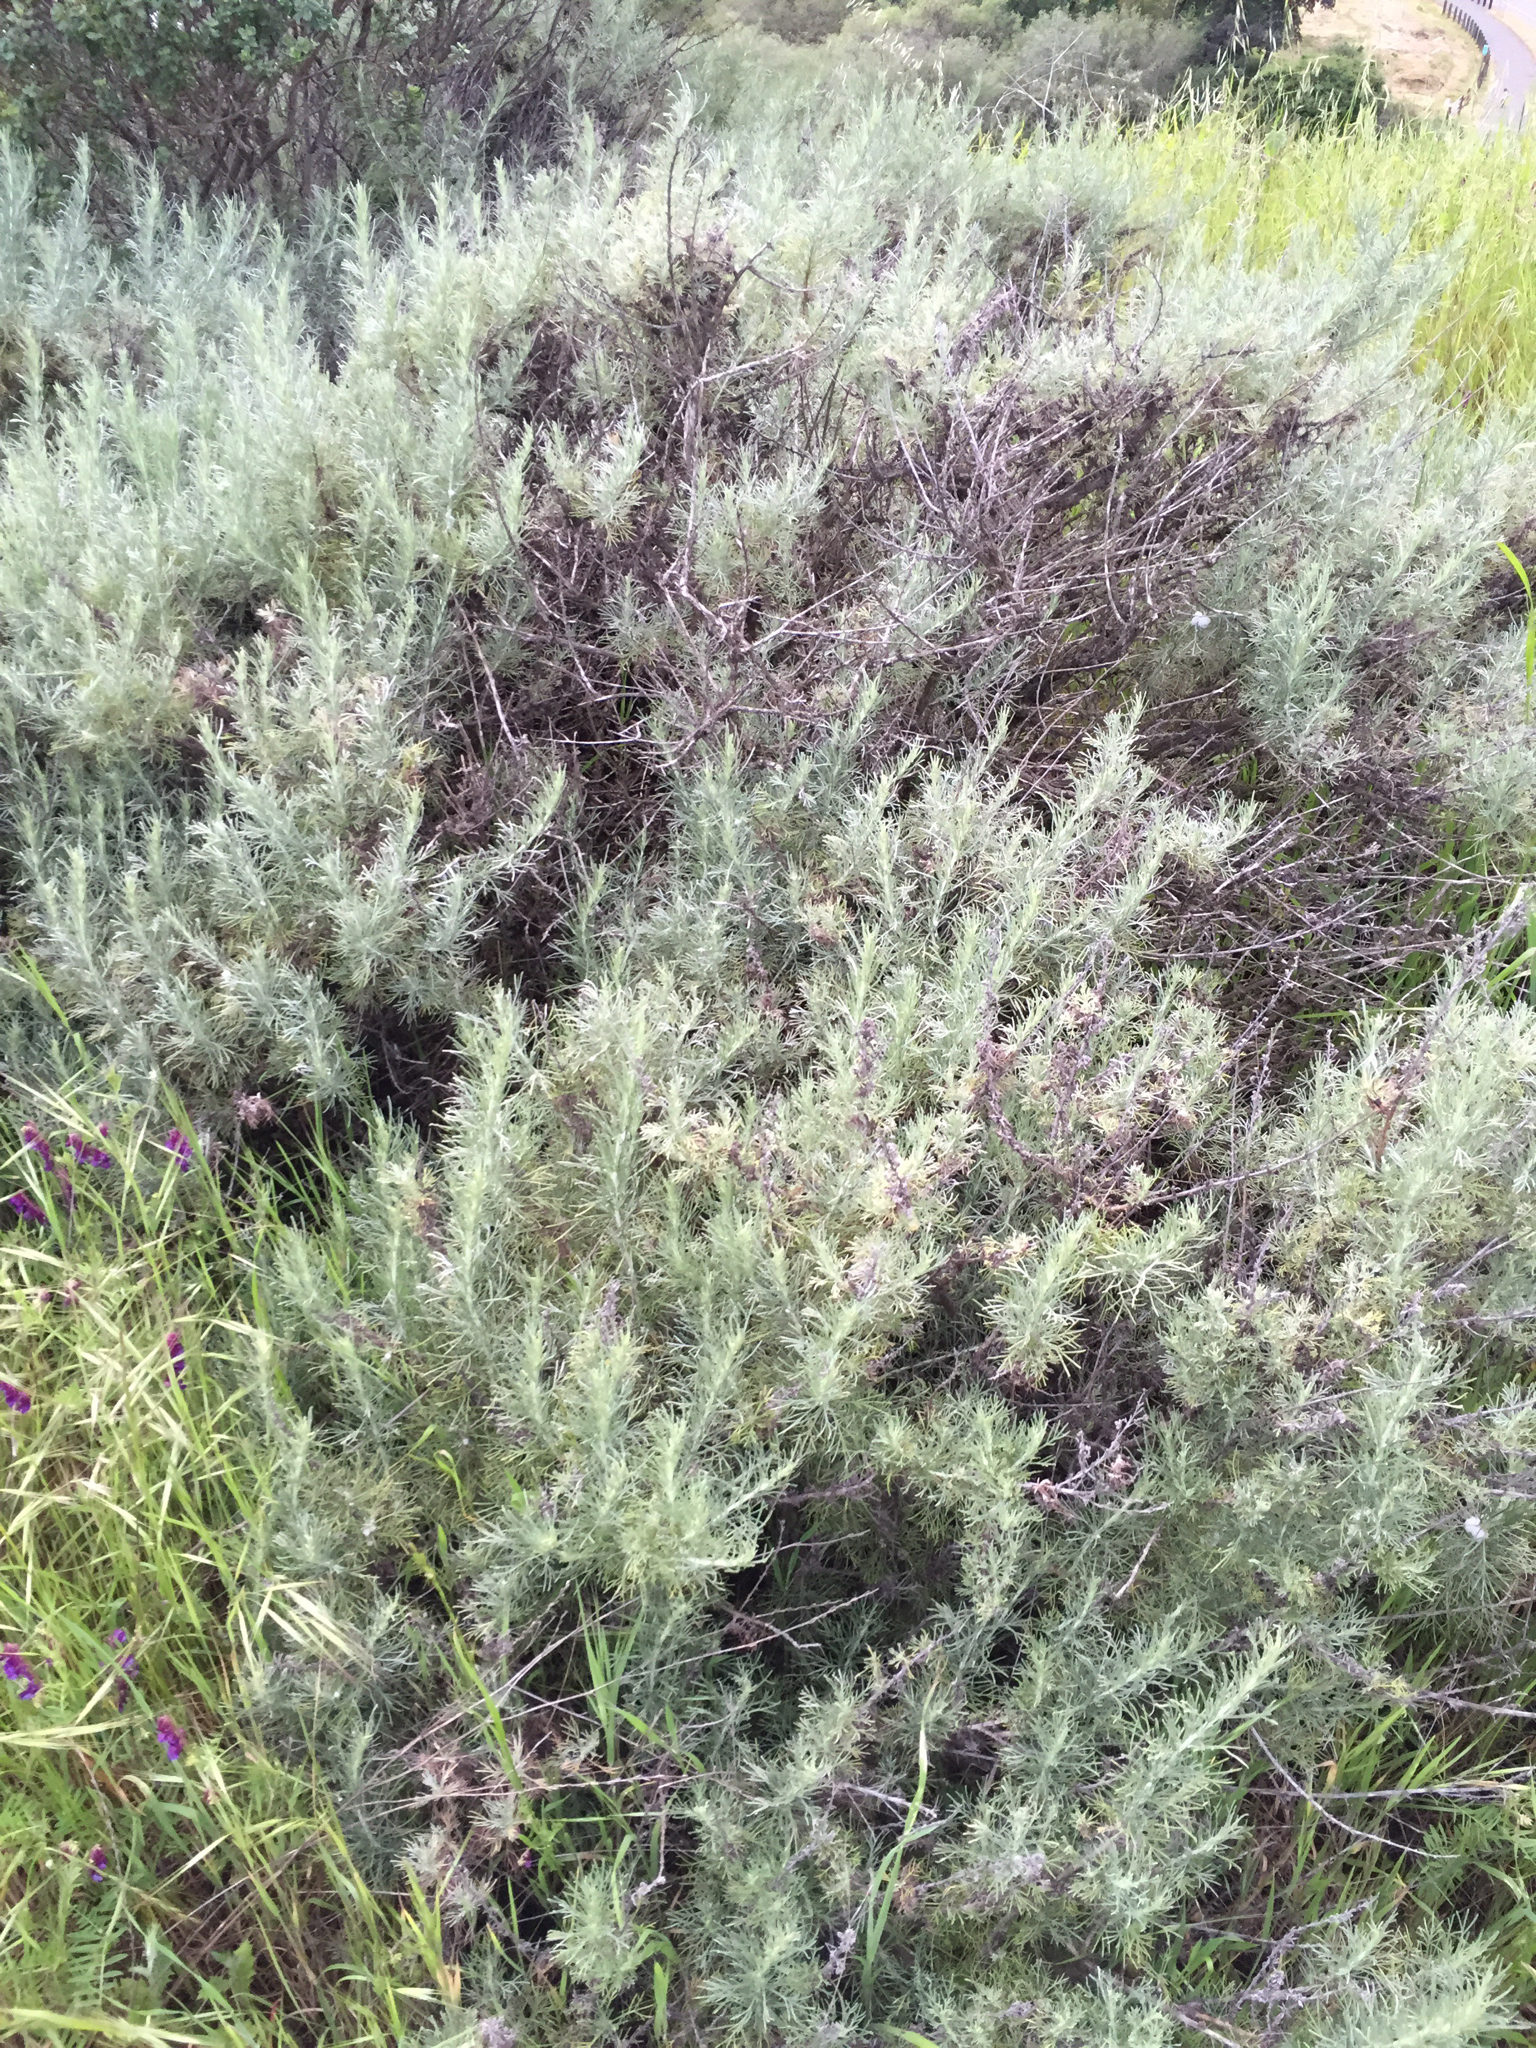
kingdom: Plantae
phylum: Tracheophyta
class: Magnoliopsida
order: Asterales
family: Asteraceae
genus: Artemisia
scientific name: Artemisia californica
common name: California sagebrush
